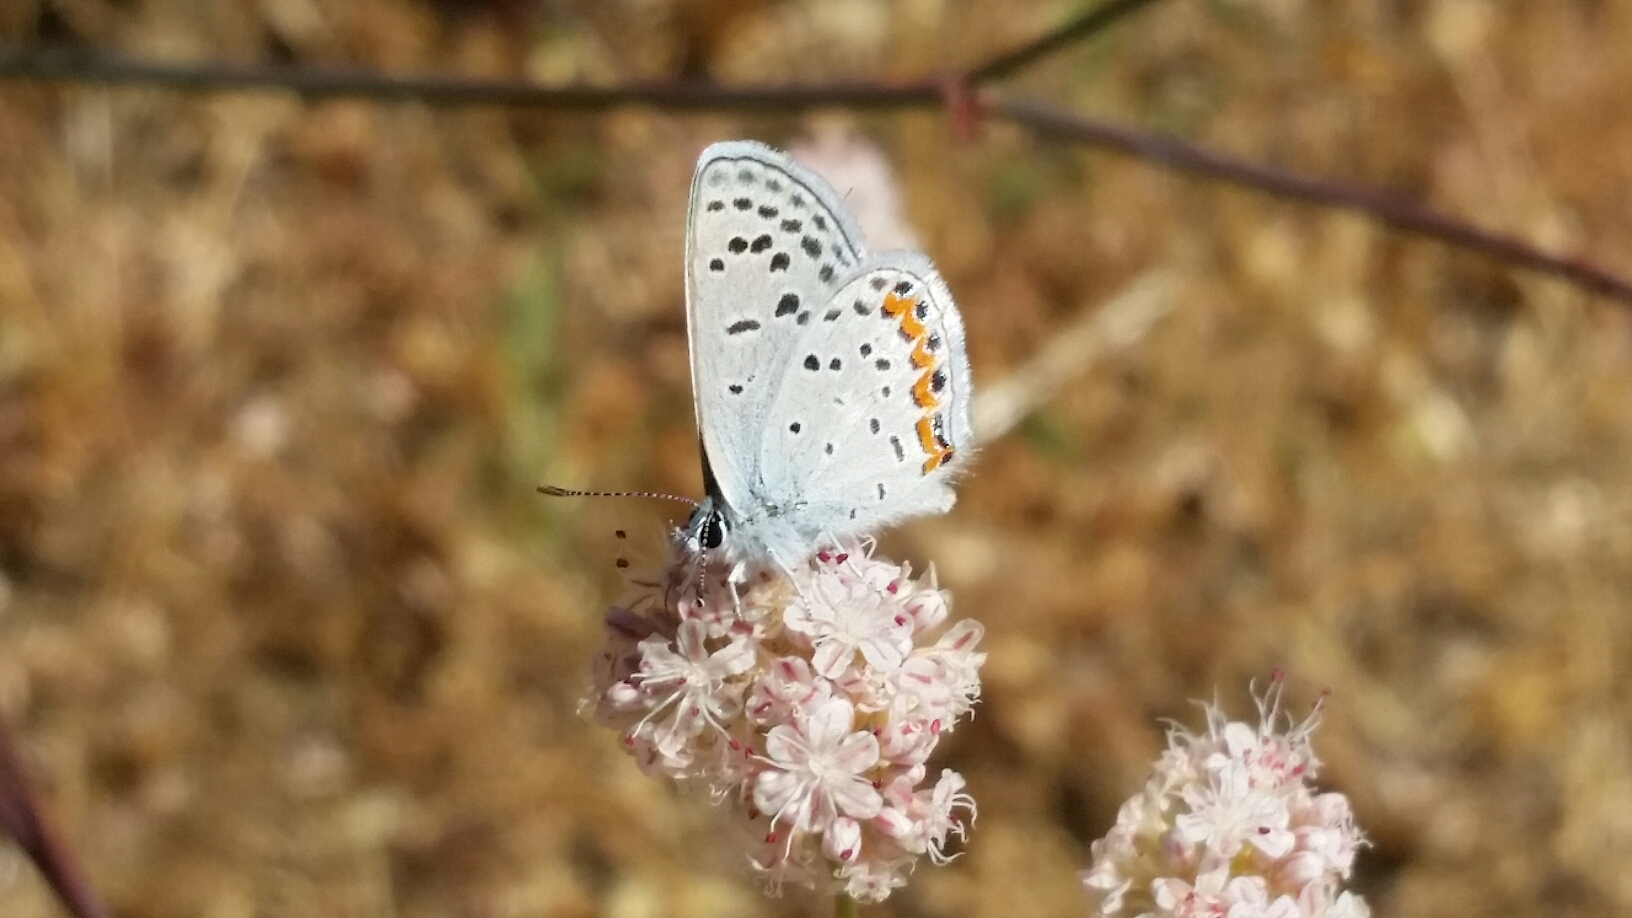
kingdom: Animalia
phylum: Arthropoda
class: Insecta
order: Lepidoptera
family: Lycaenidae
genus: Icaricia
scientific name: Icaricia acmon
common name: Acmon blue
